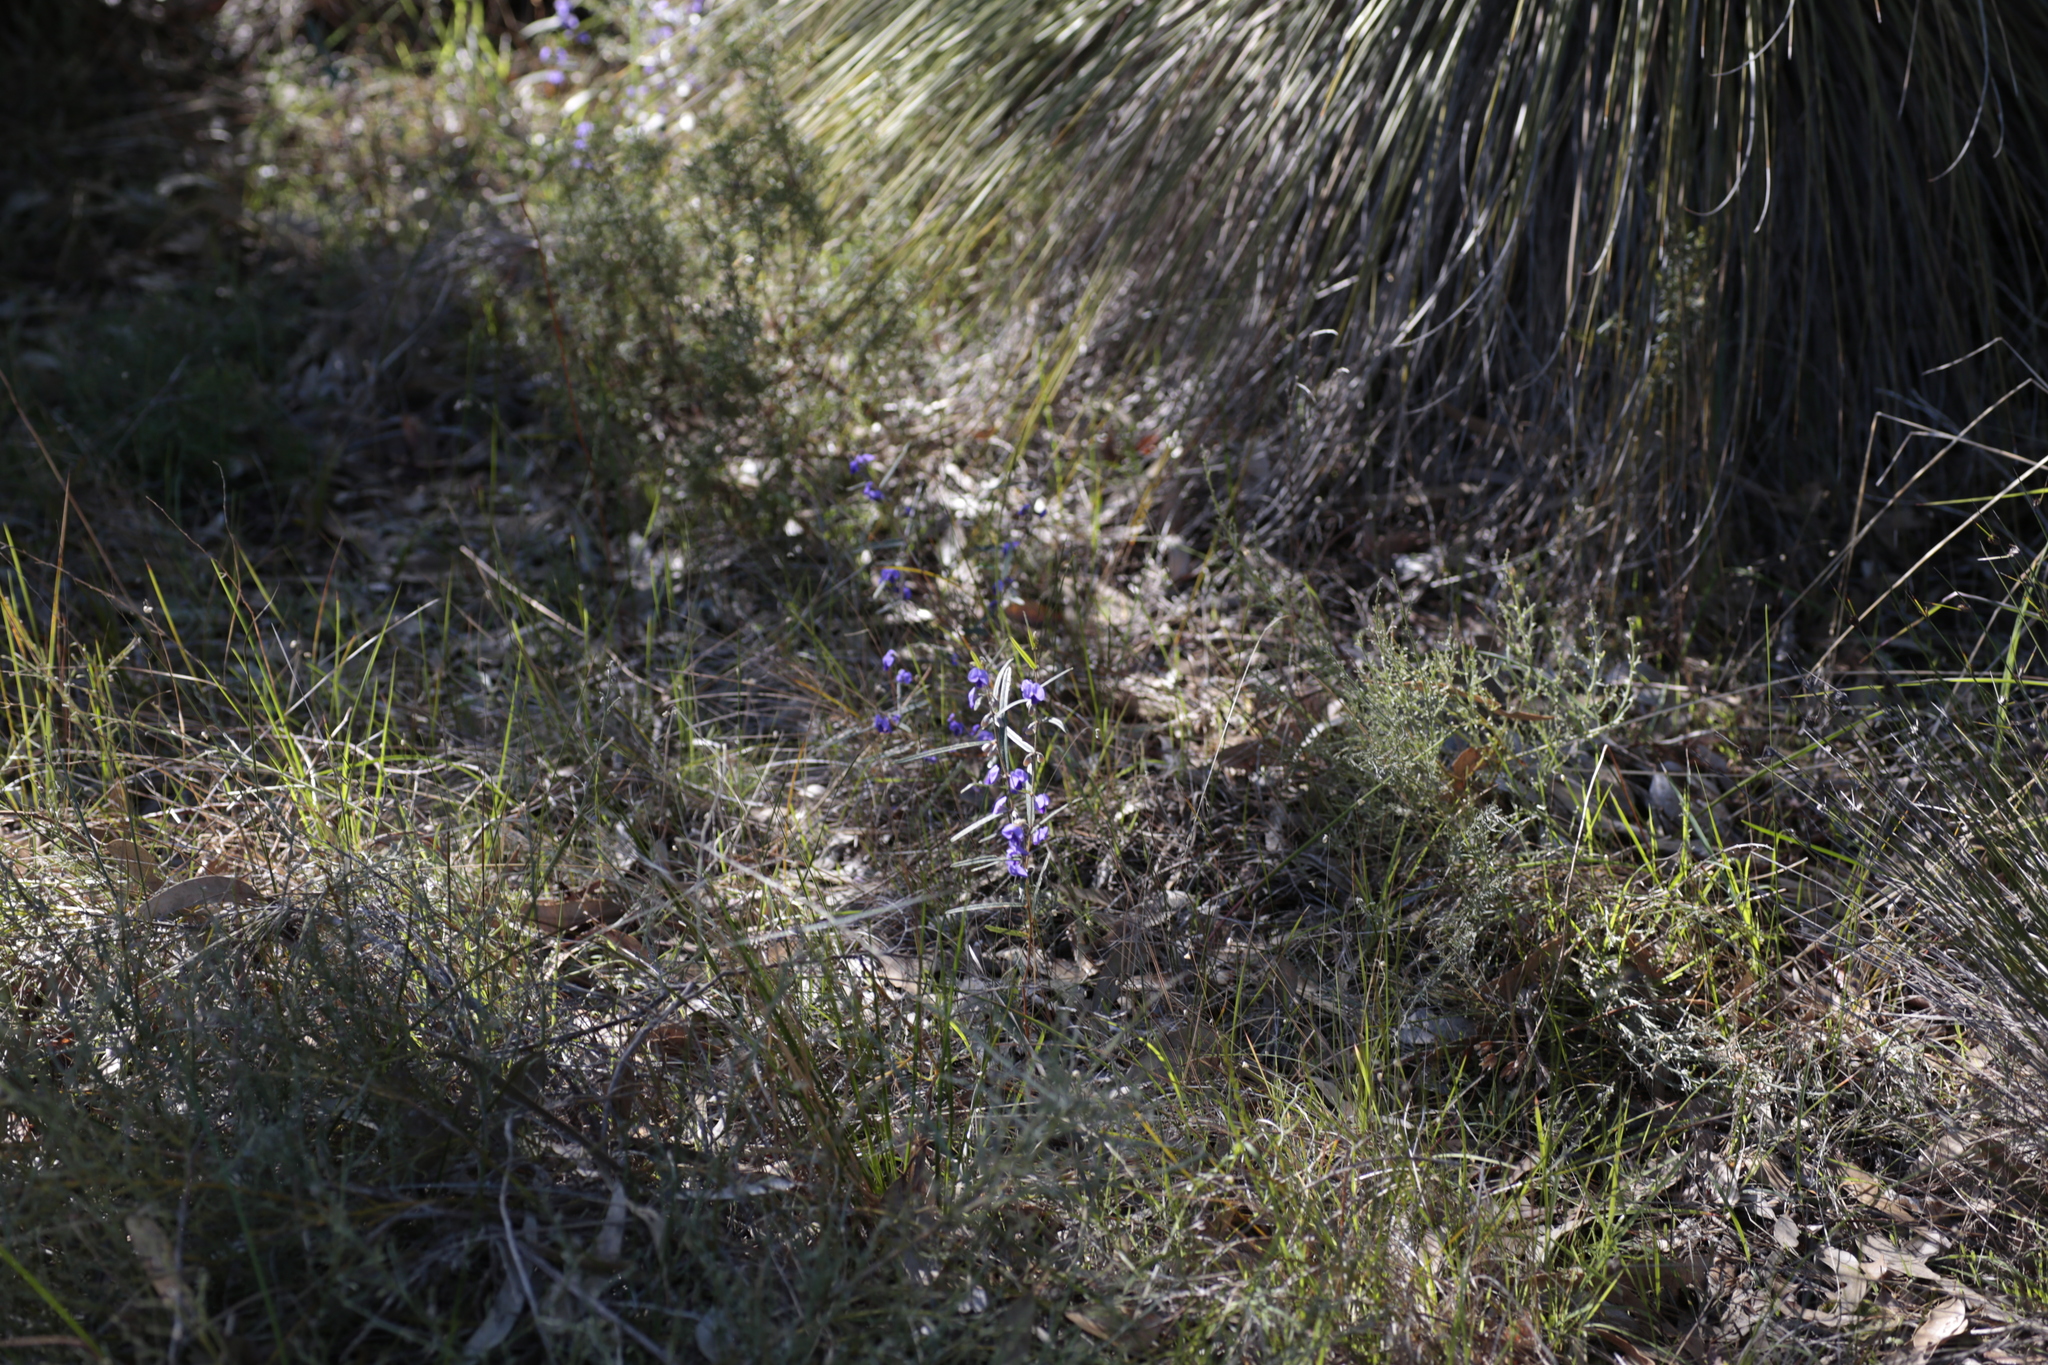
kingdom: Plantae
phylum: Tracheophyta
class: Magnoliopsida
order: Fabales
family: Fabaceae
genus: Hovea
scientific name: Hovea trisperma
